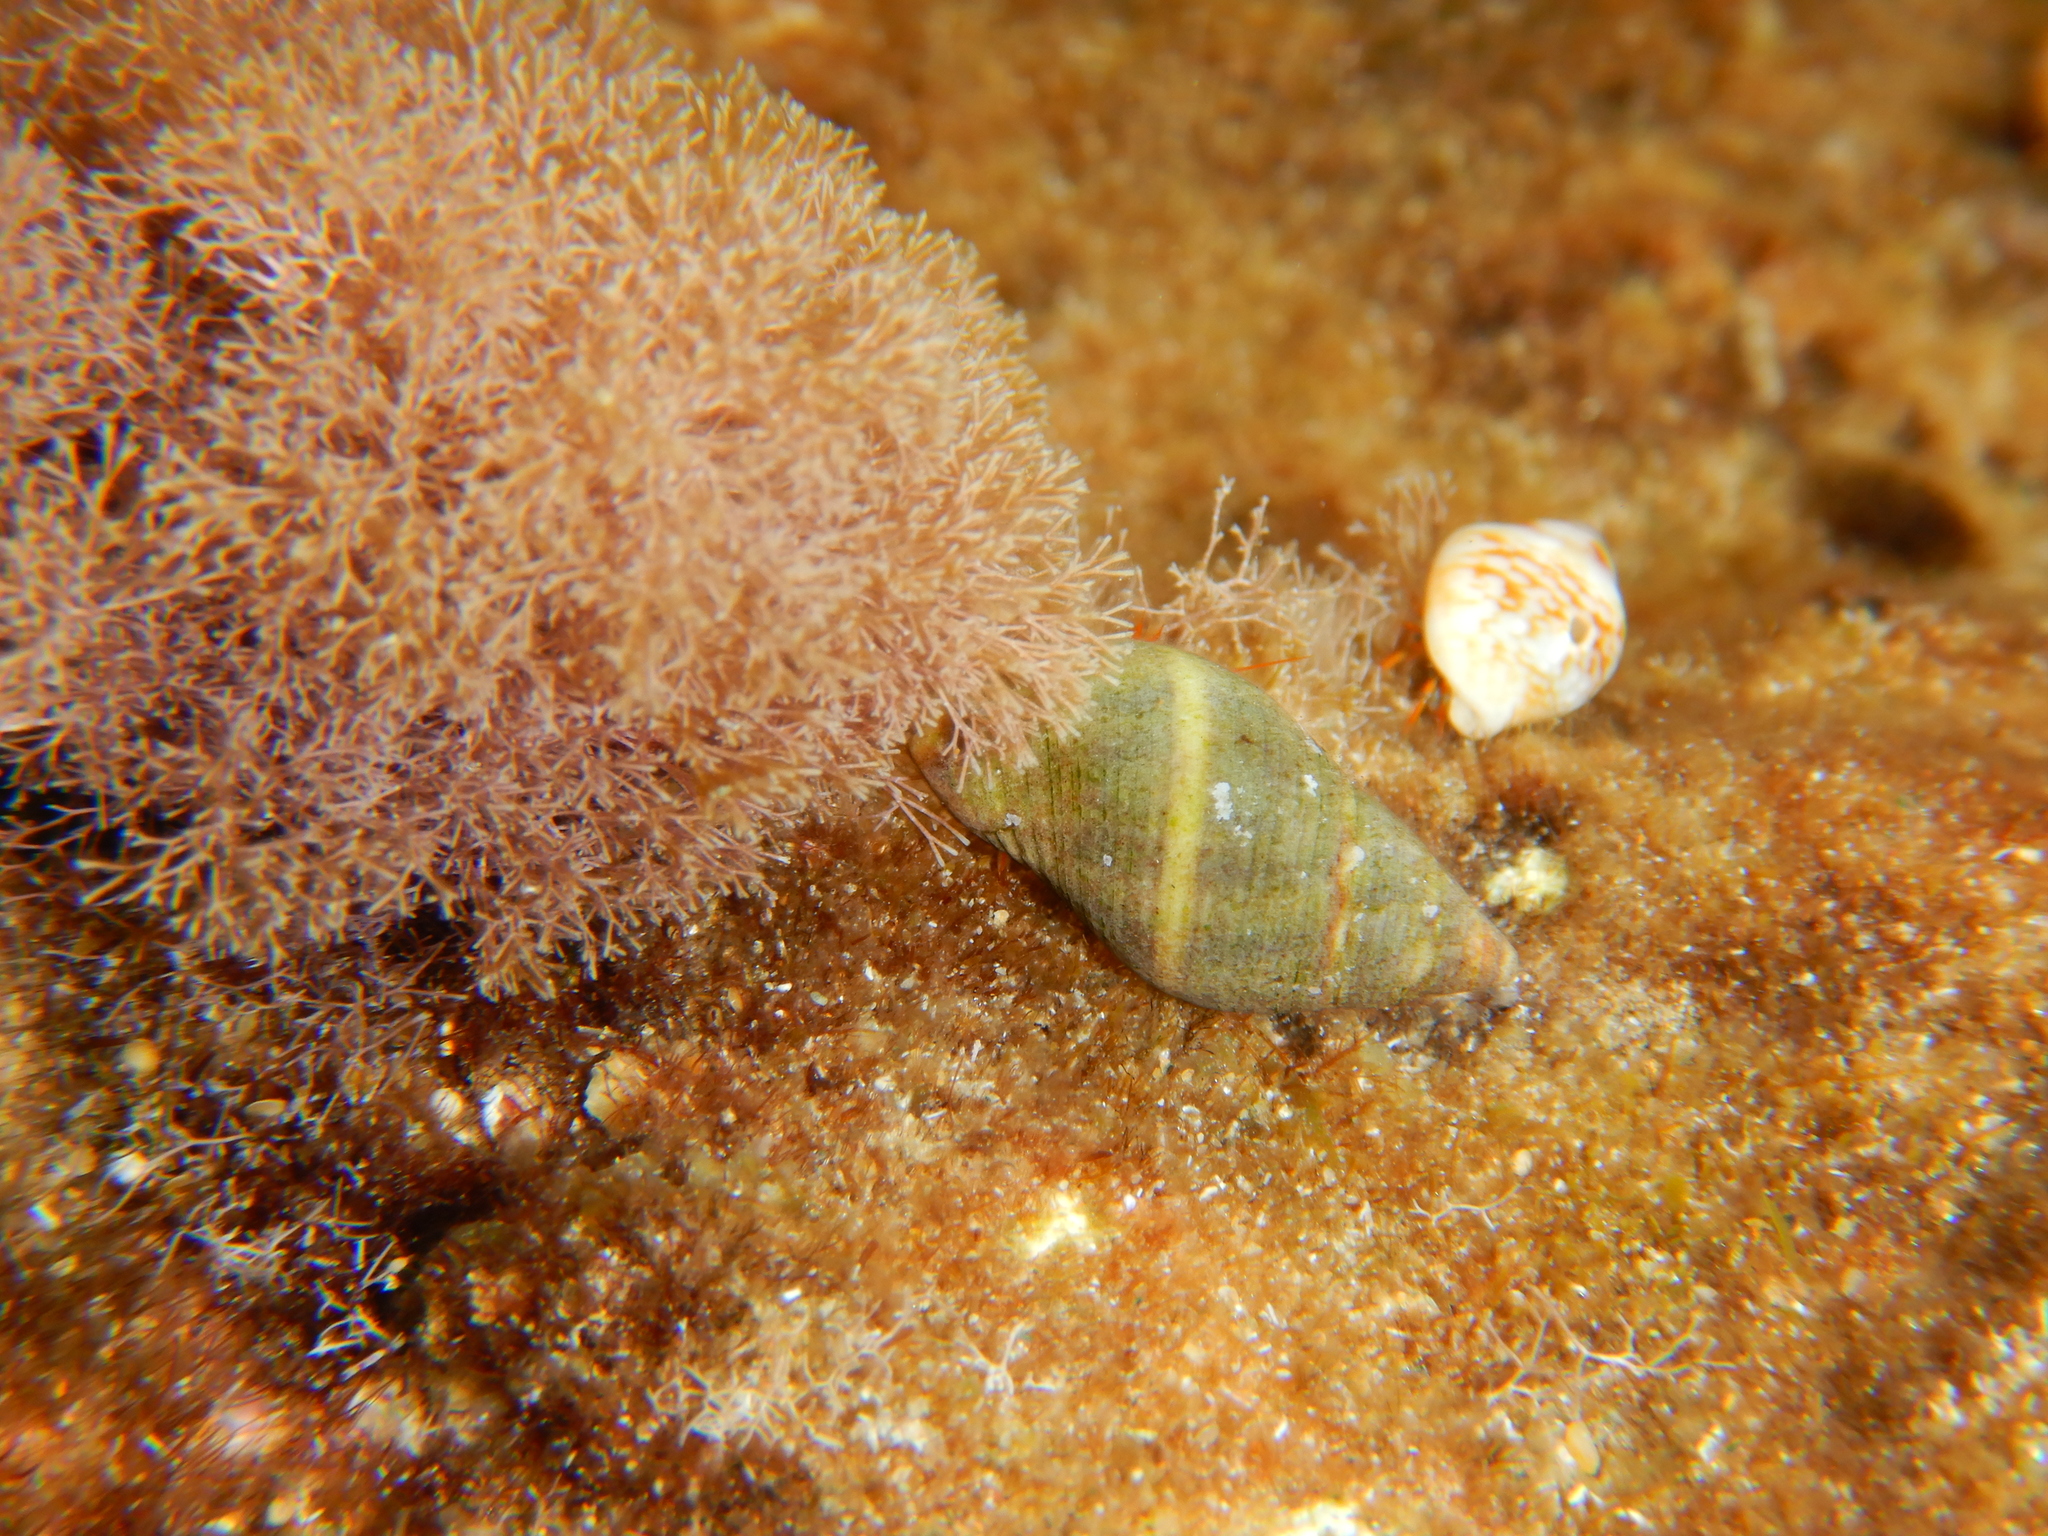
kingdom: Animalia
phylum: Mollusca
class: Gastropoda
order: Neogastropoda
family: Pisaniidae
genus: Pisania
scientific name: Pisania striata
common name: Spotted pisania
